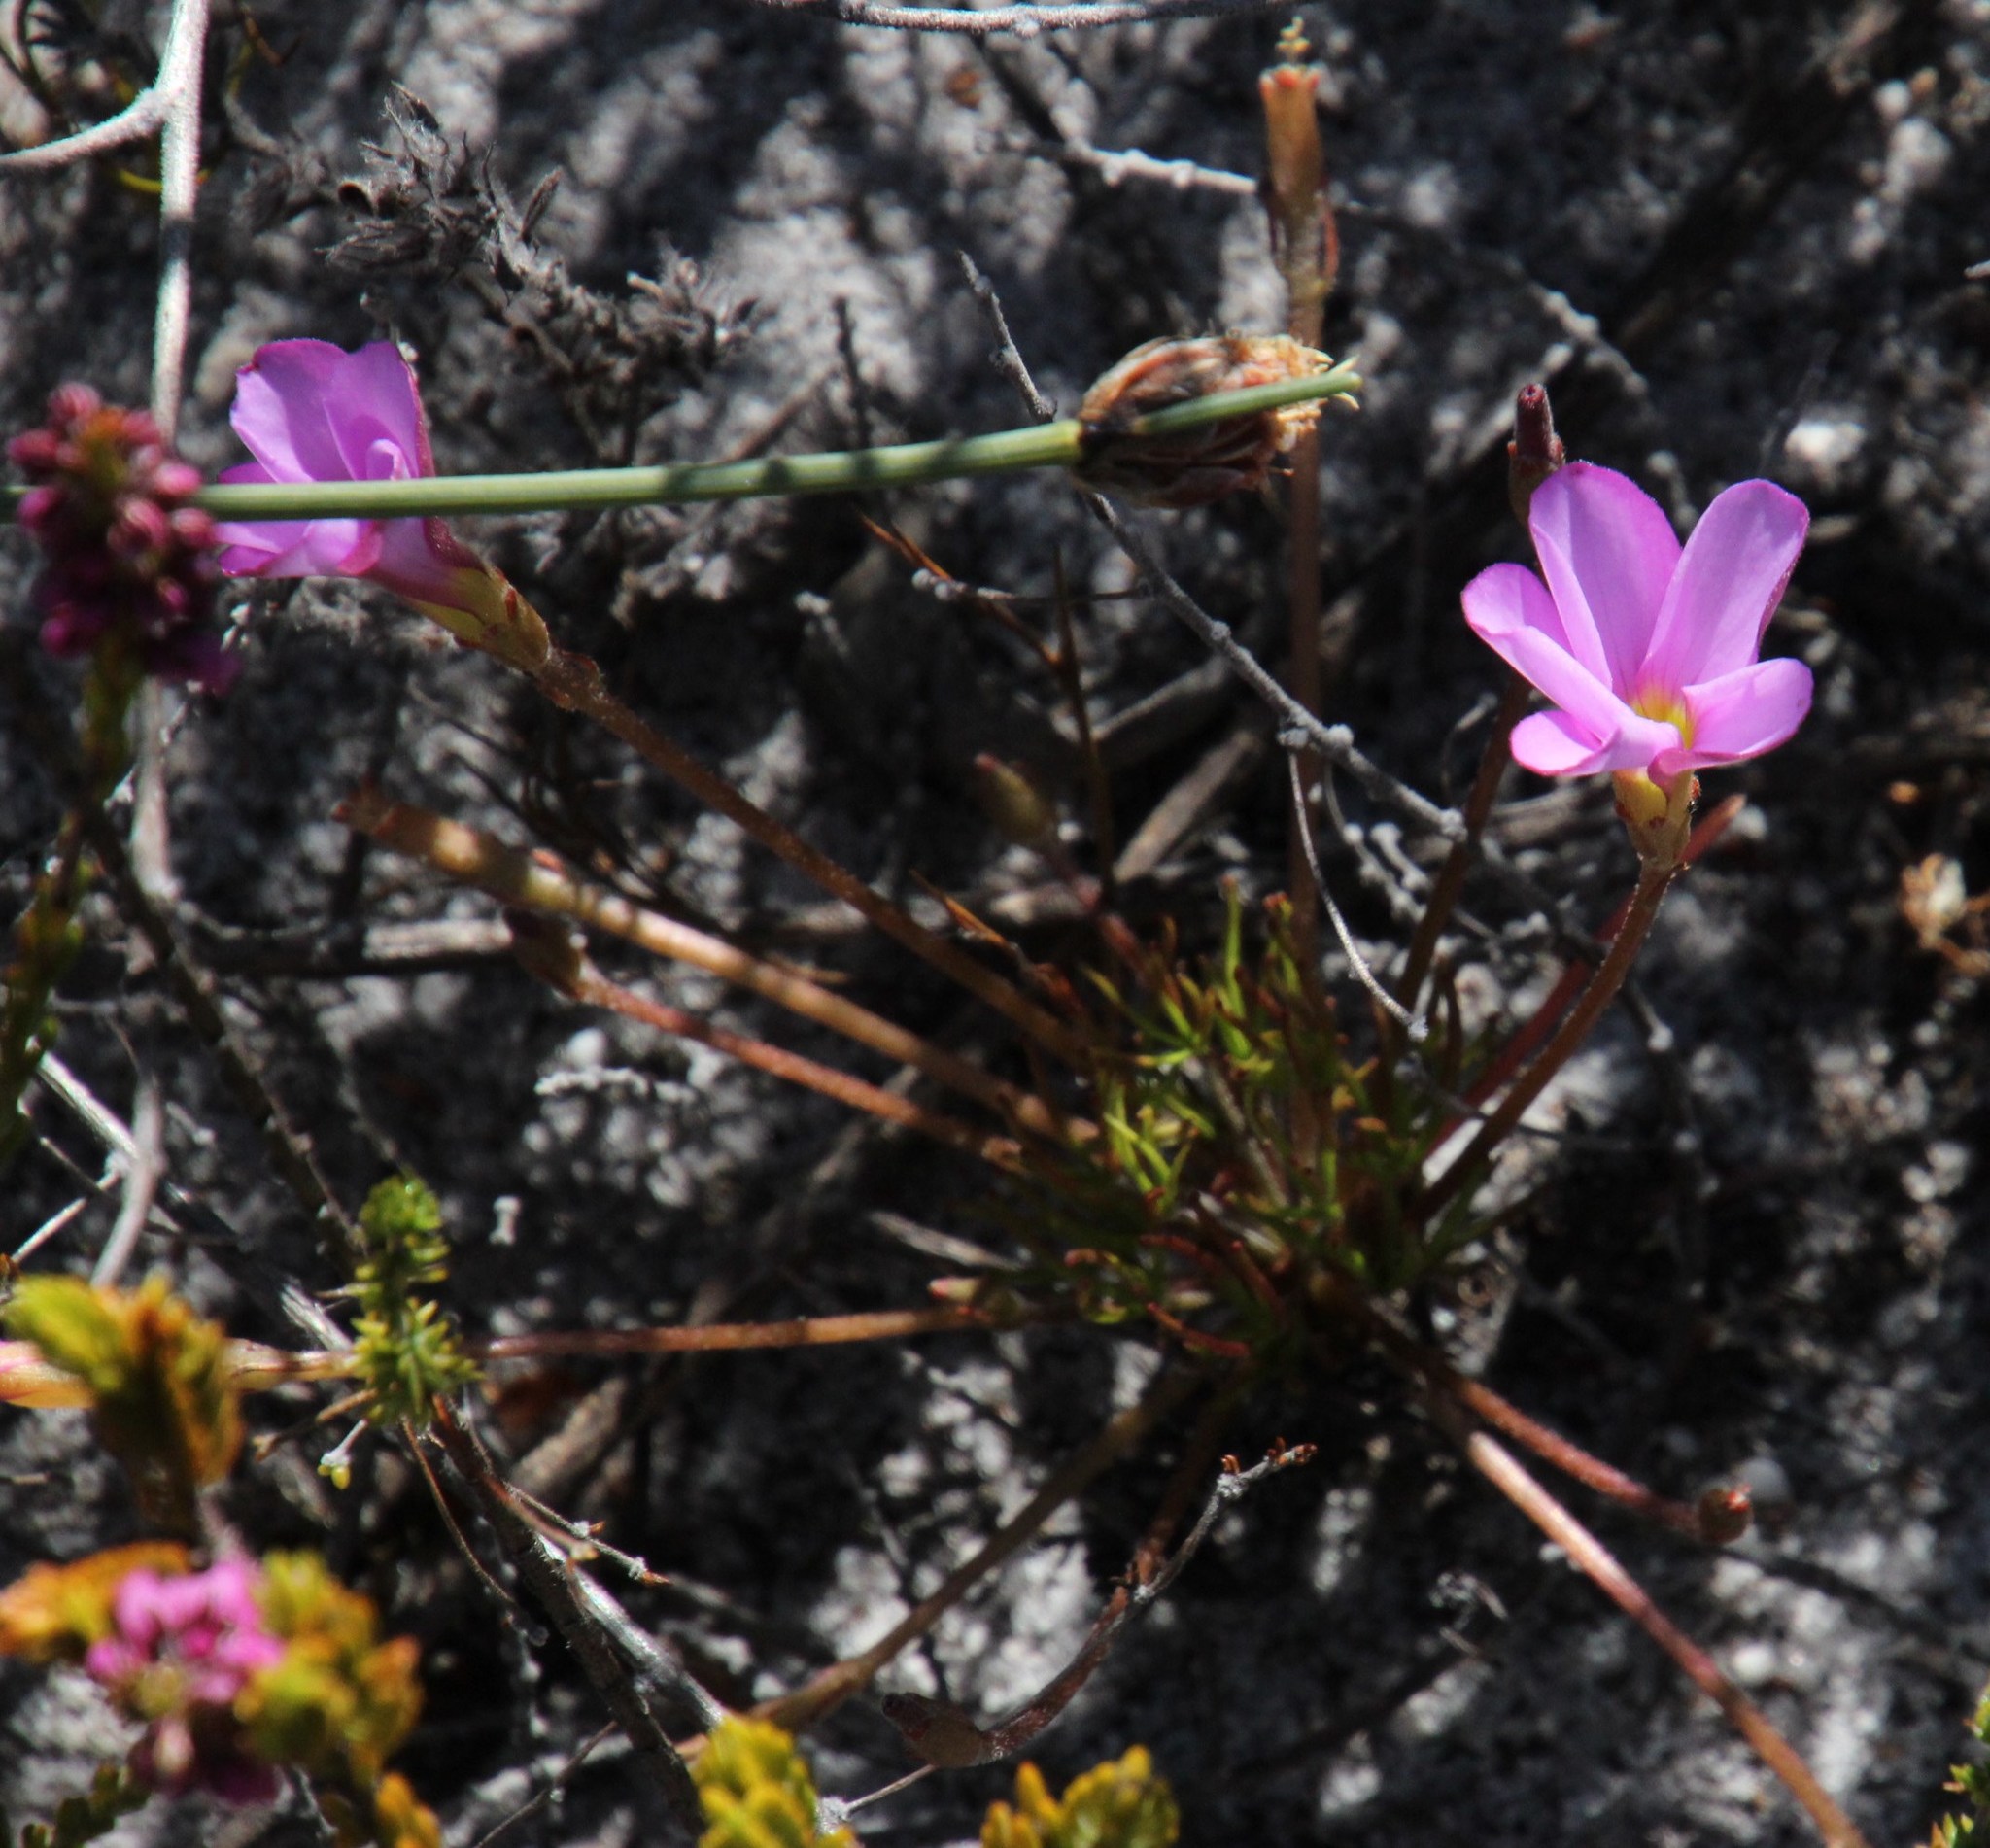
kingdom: Plantae
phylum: Tracheophyta
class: Magnoliopsida
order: Oxalidales
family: Oxalidaceae
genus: Oxalis
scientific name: Oxalis polyphylla
